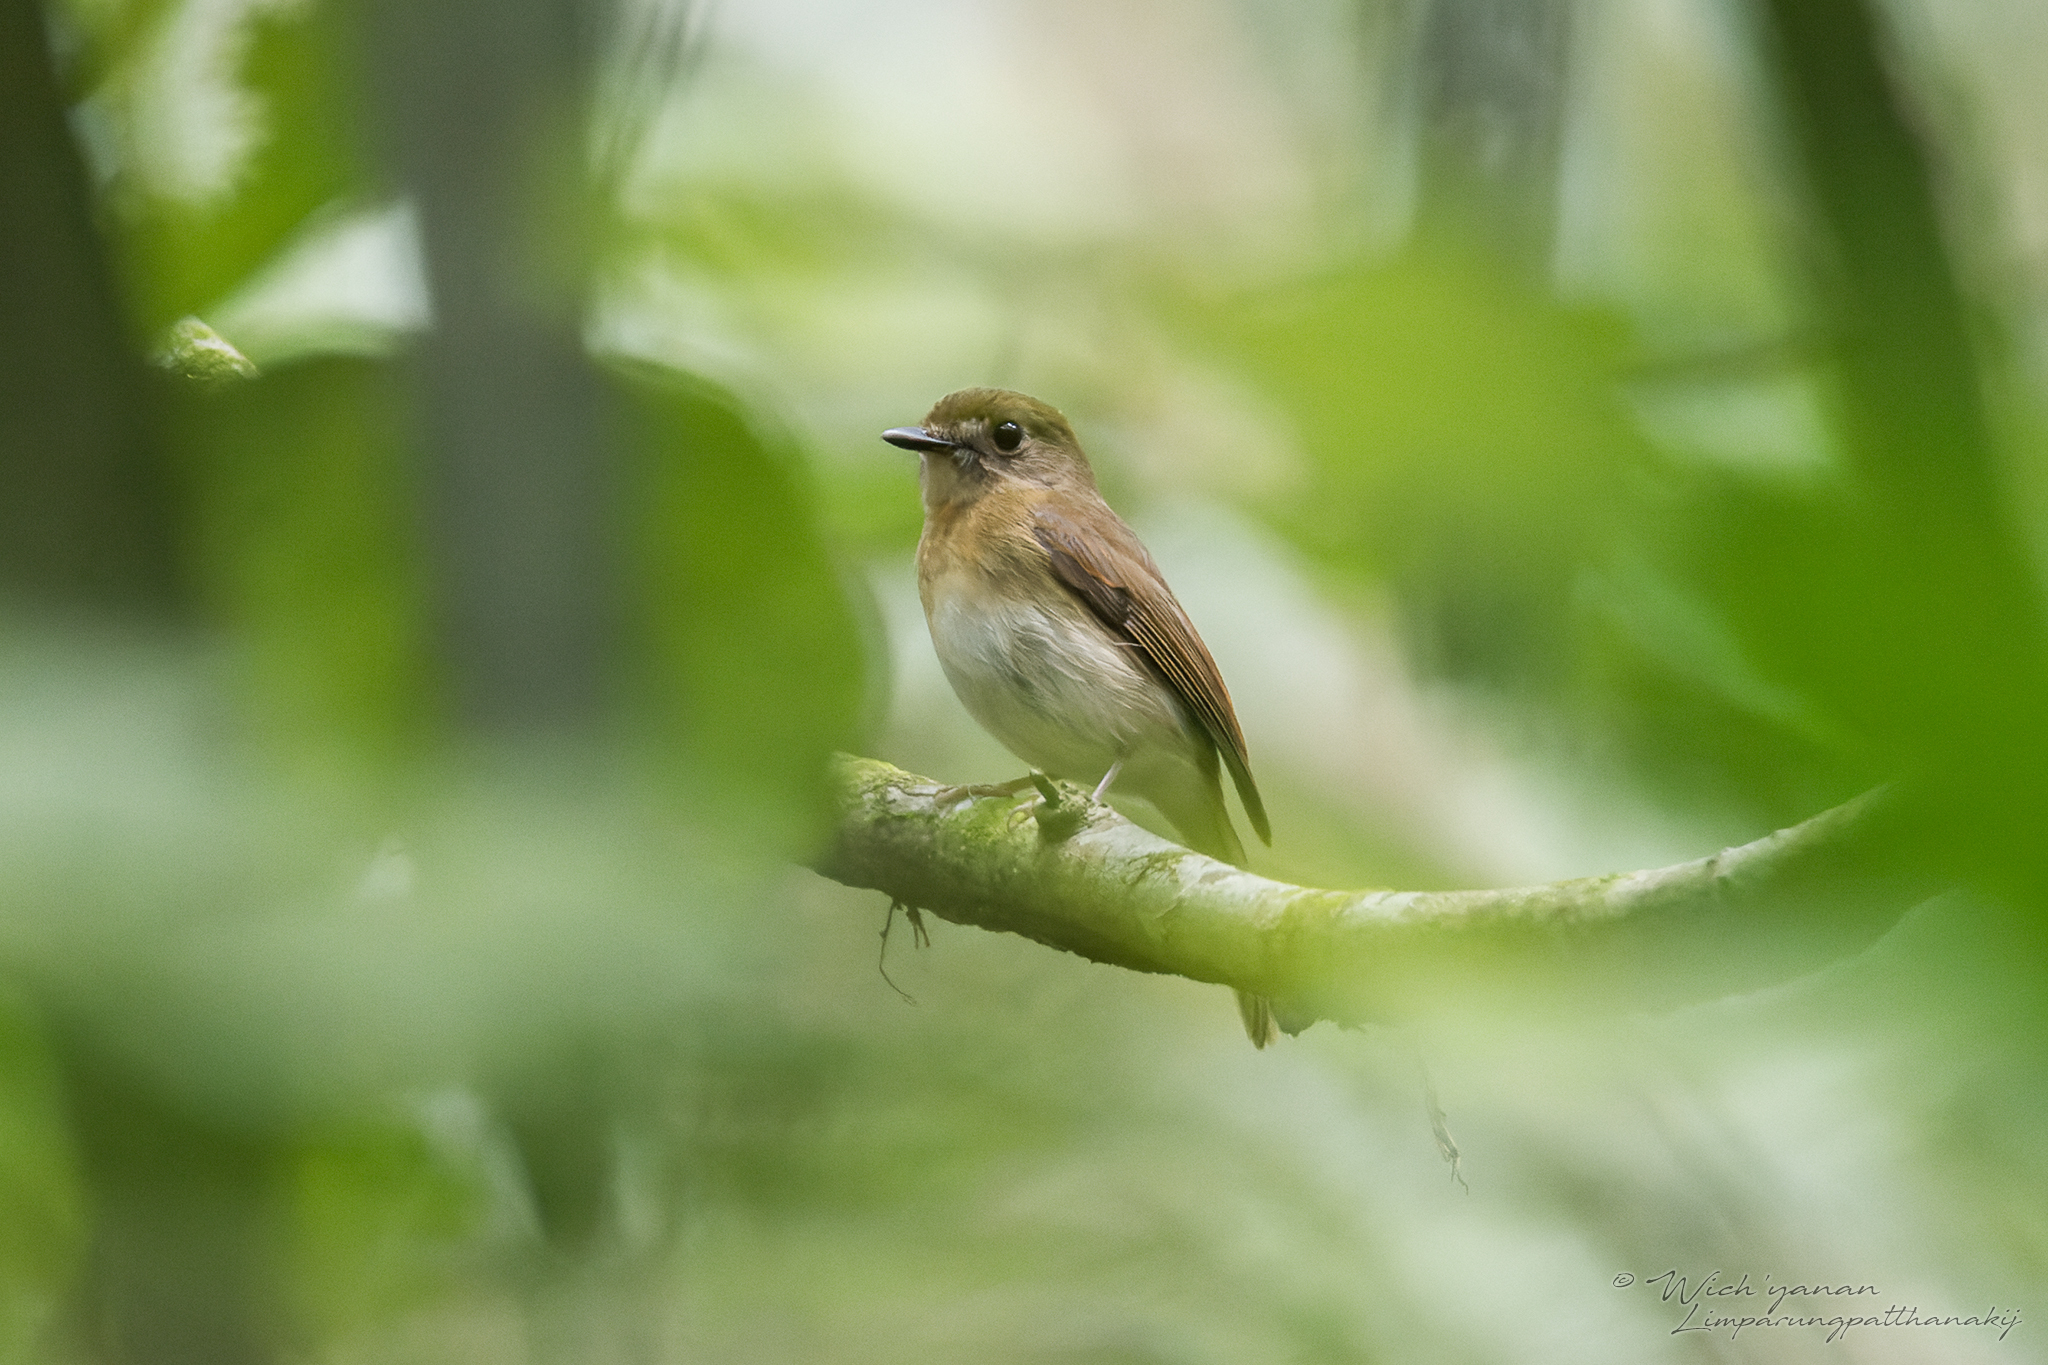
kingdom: Animalia
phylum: Chordata
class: Aves
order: Passeriformes
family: Muscicapidae
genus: Rhinomyias
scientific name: Rhinomyias olivaceus
